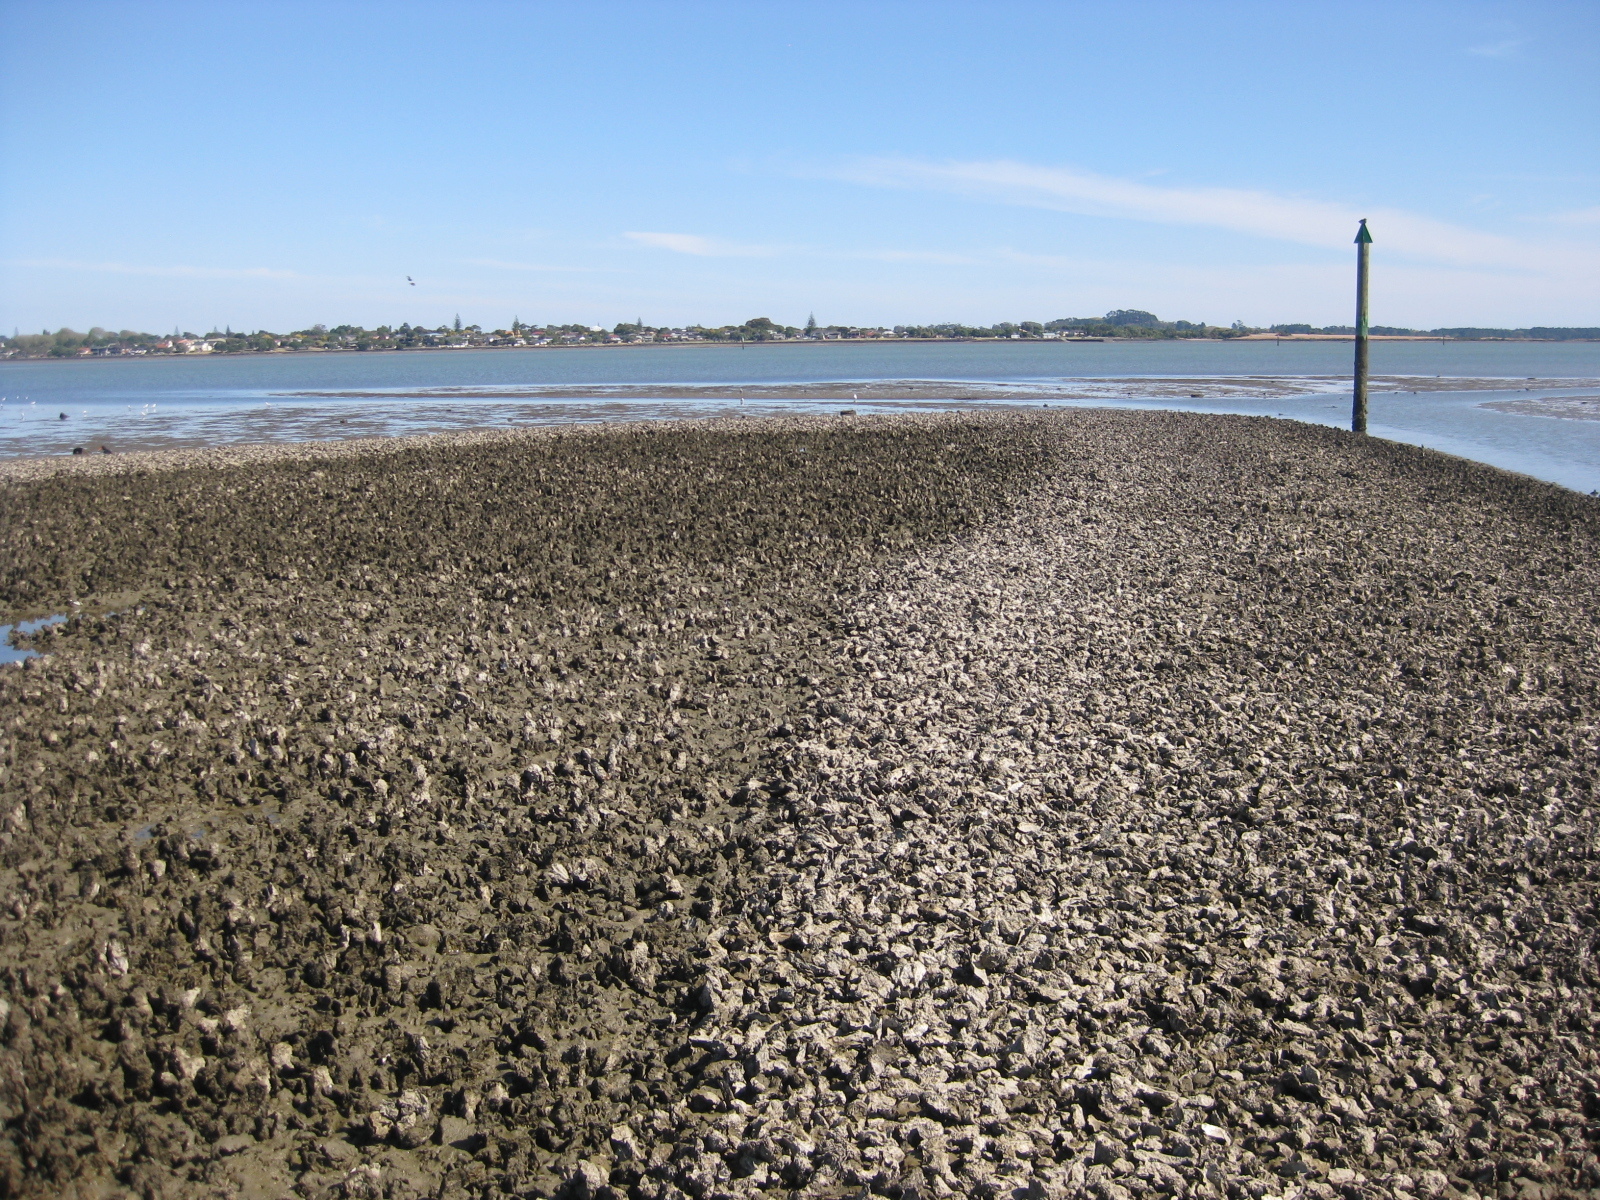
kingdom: Animalia
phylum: Mollusca
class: Bivalvia
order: Ostreida
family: Ostreidae
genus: Magallana
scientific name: Magallana gigas
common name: Pacific oyster
